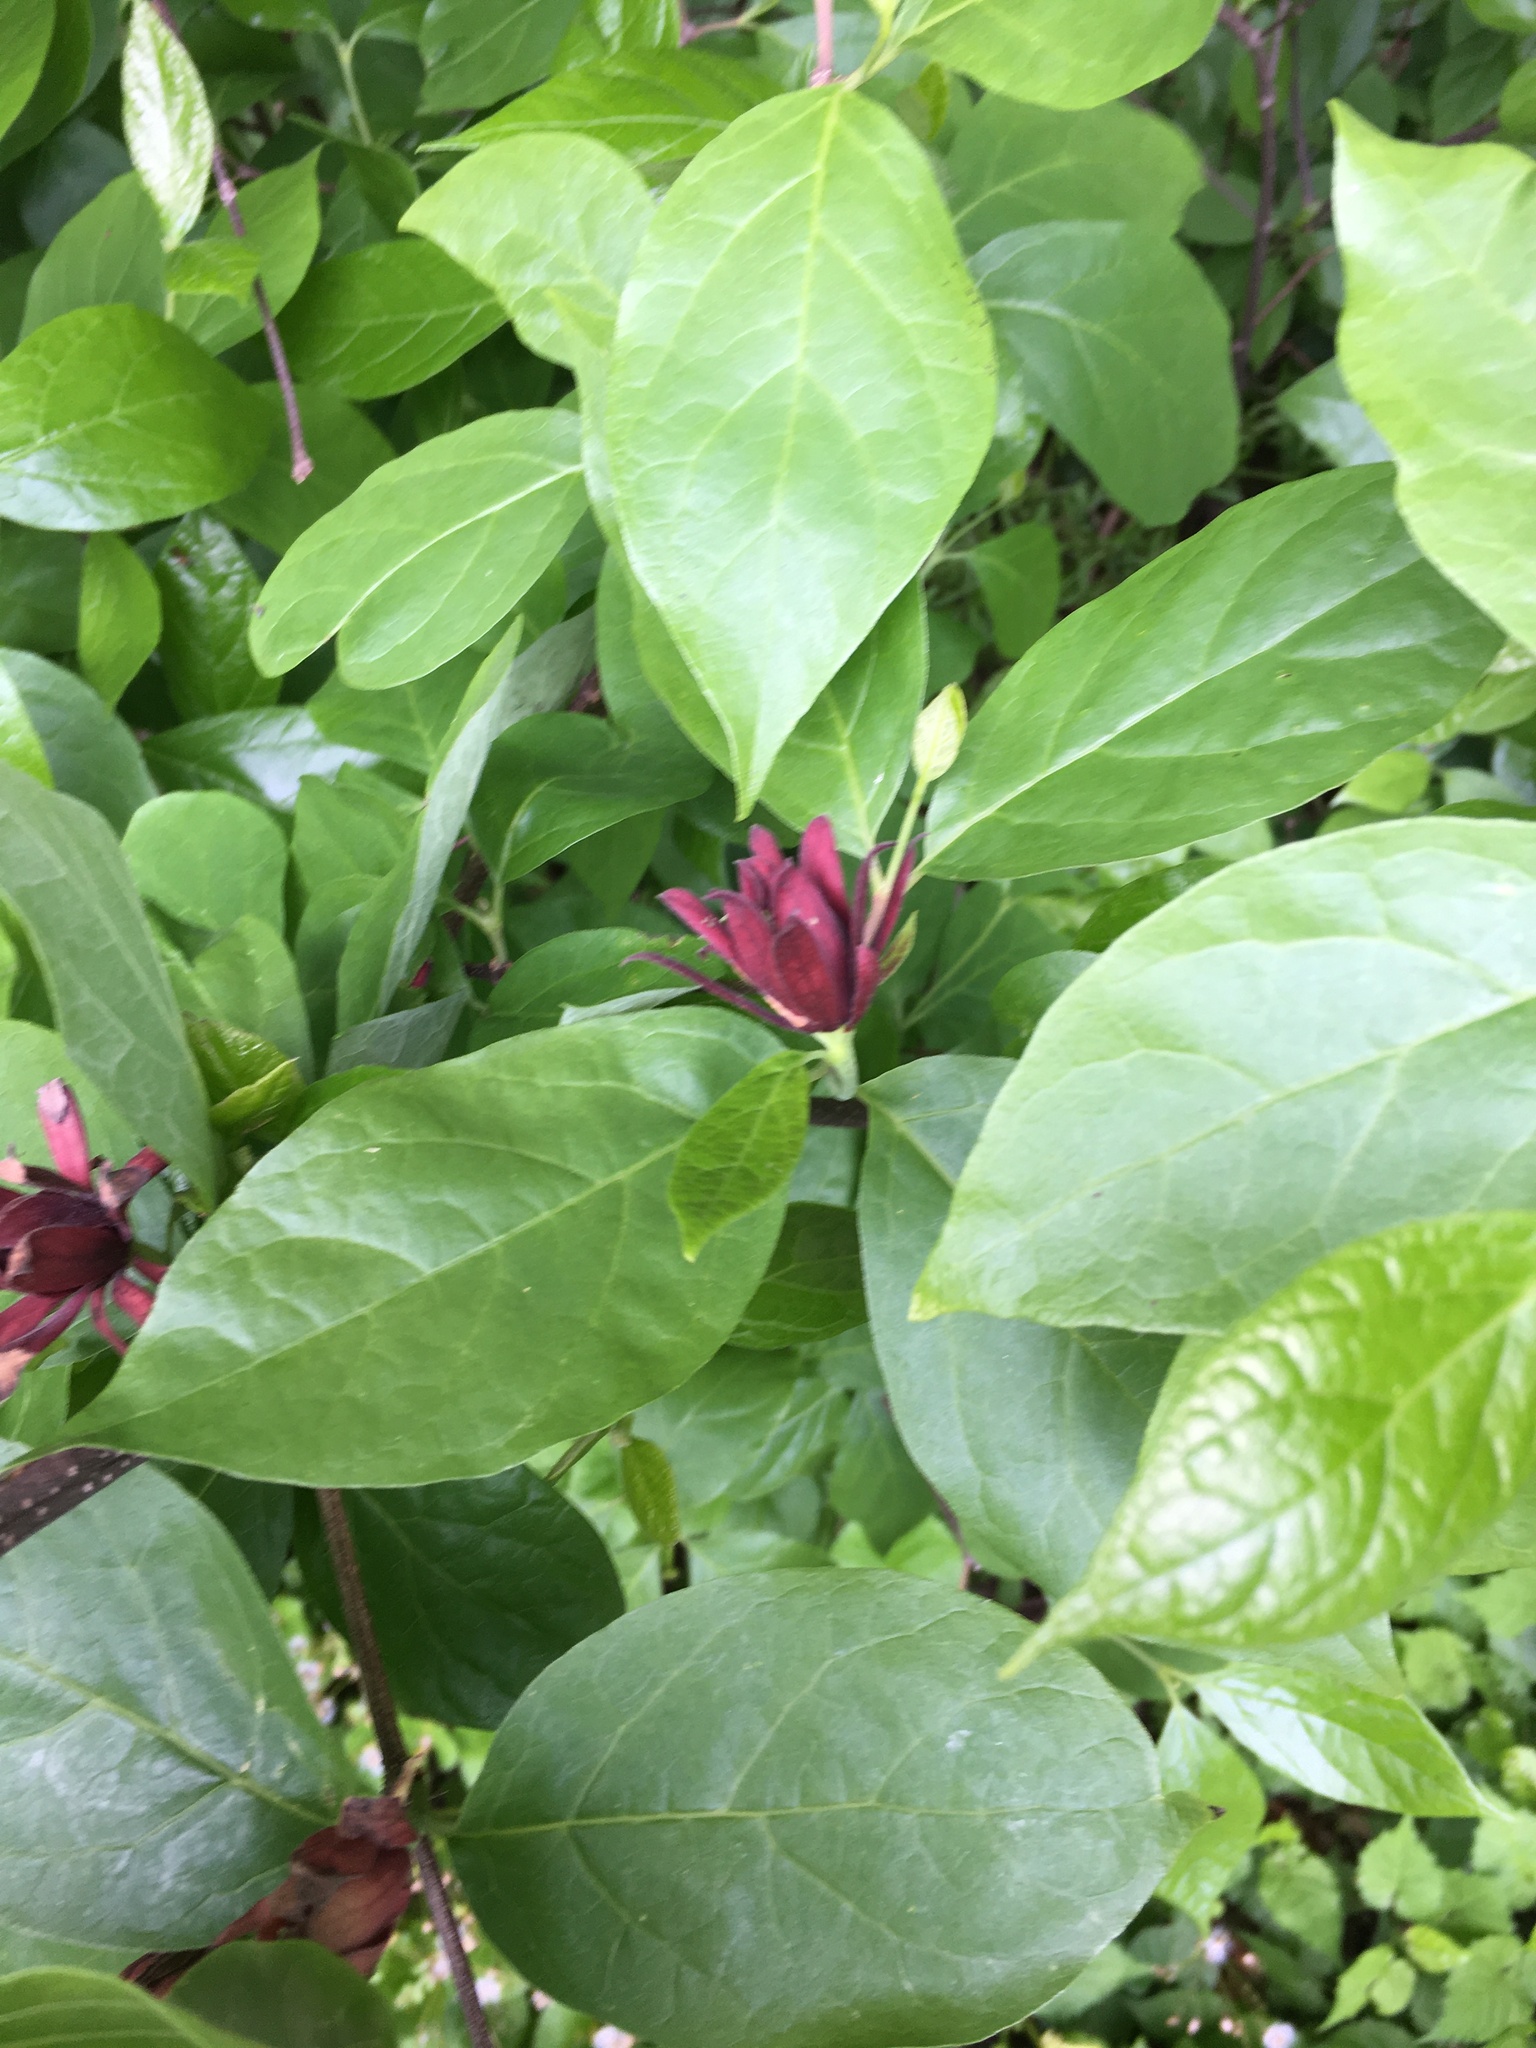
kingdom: Plantae
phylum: Tracheophyta
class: Magnoliopsida
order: Laurales
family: Calycanthaceae
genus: Calycanthus
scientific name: Calycanthus floridus
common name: Carolina-allspice
